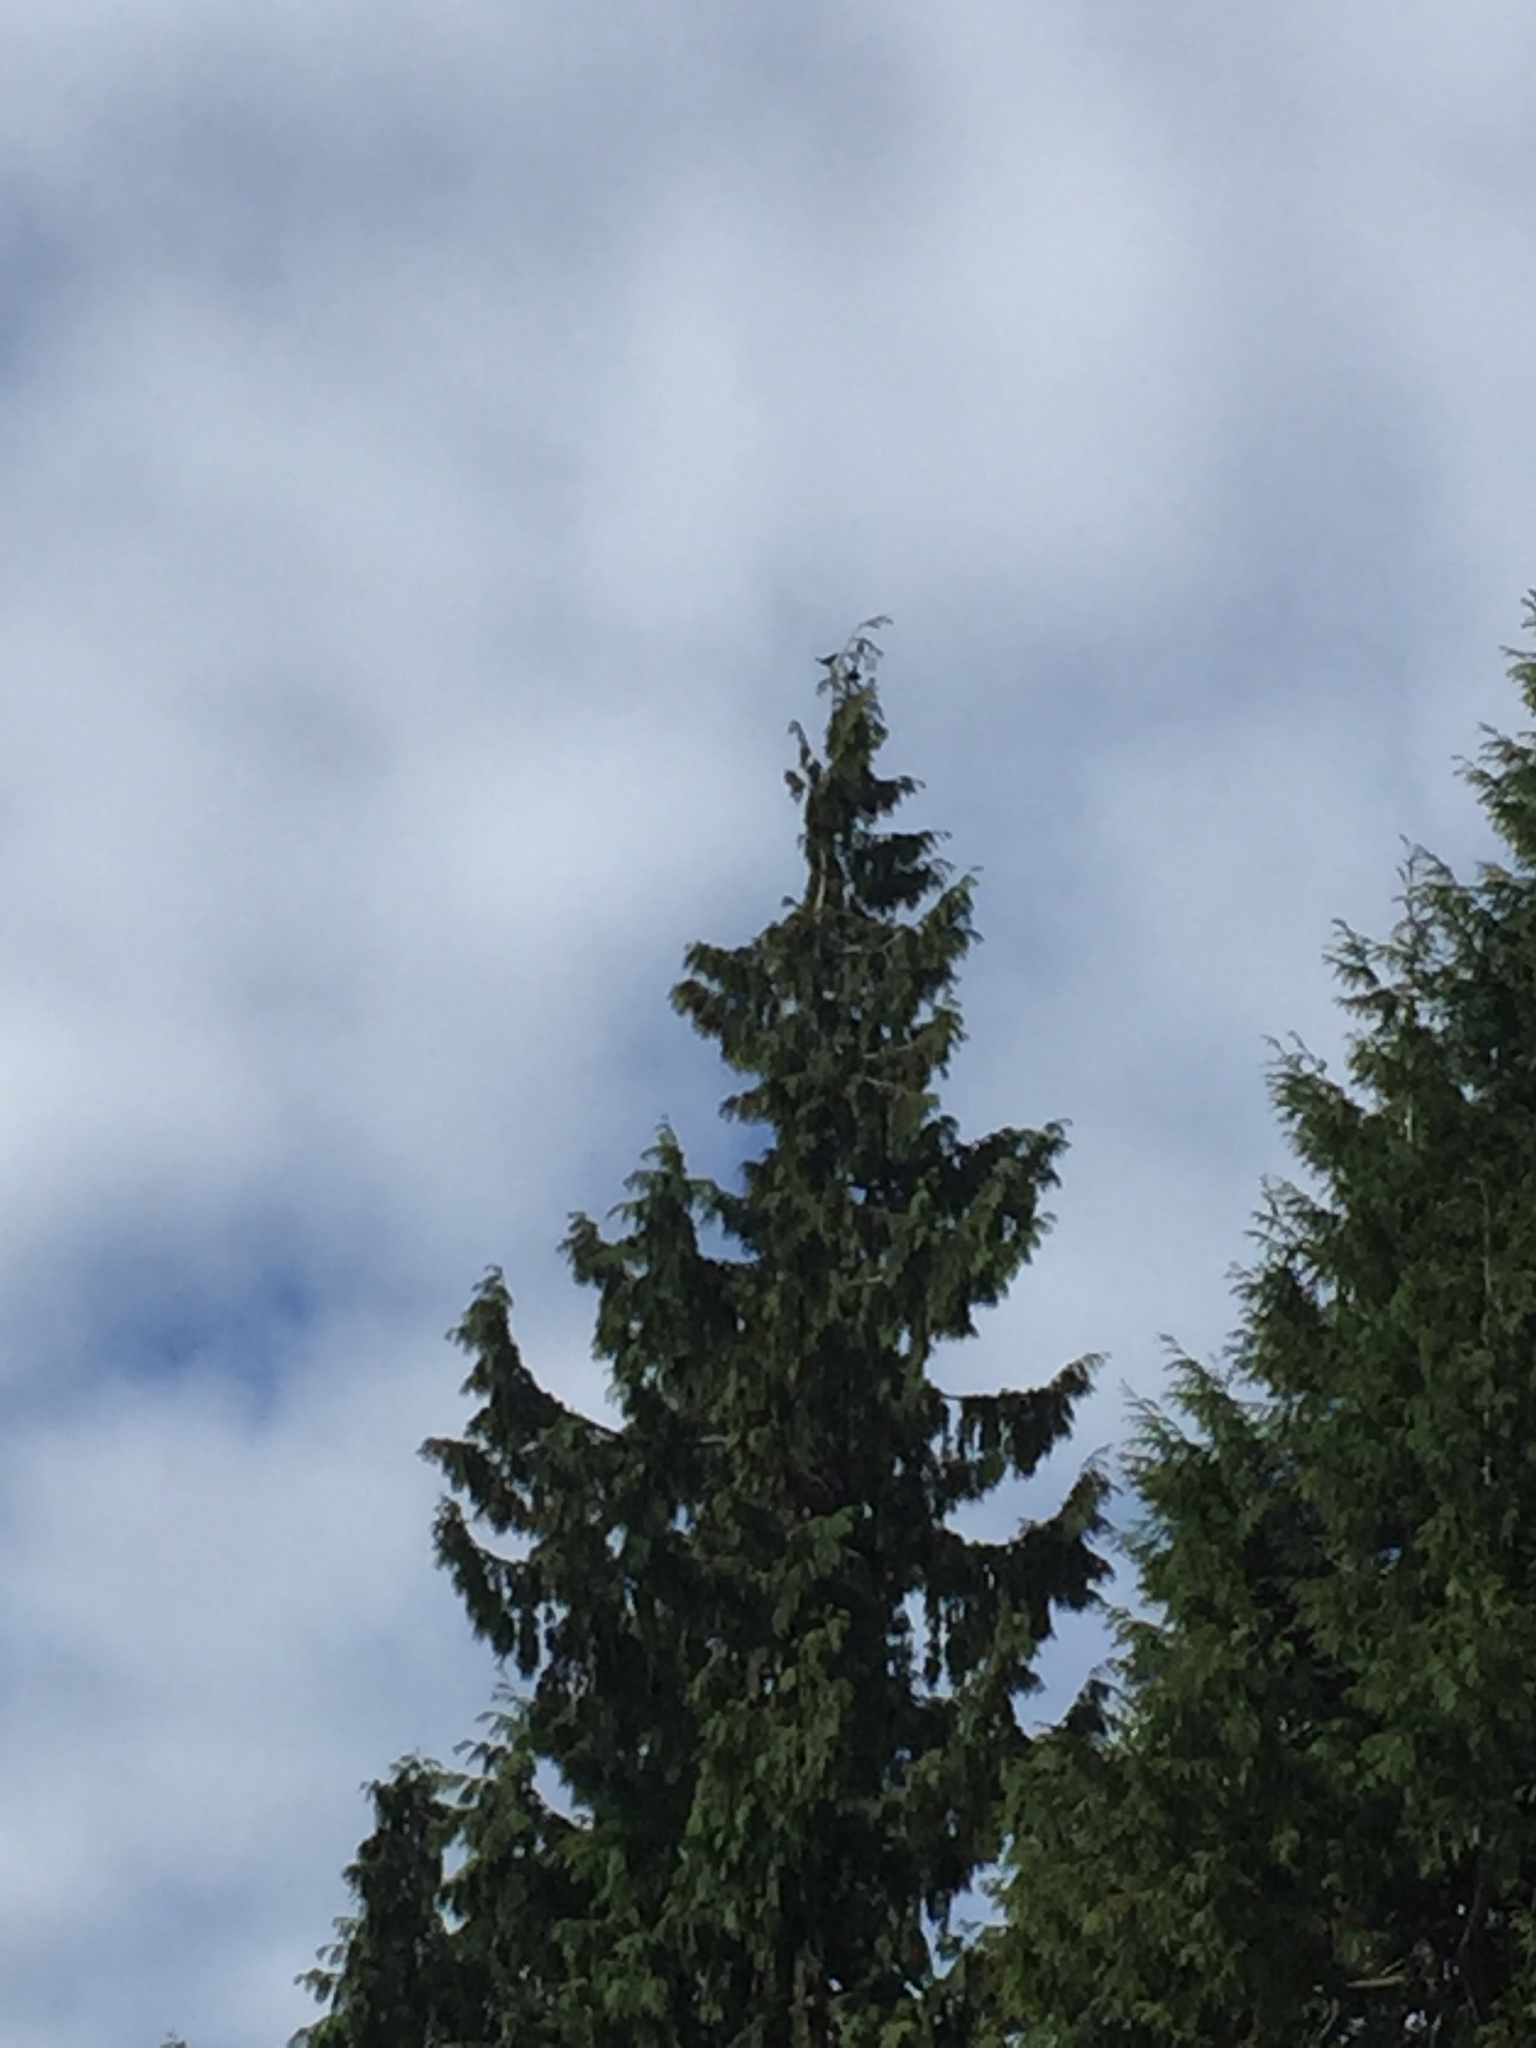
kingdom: Animalia
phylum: Chordata
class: Aves
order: Passeriformes
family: Icteridae
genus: Molothrus
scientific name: Molothrus ater
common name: Brown-headed cowbird
